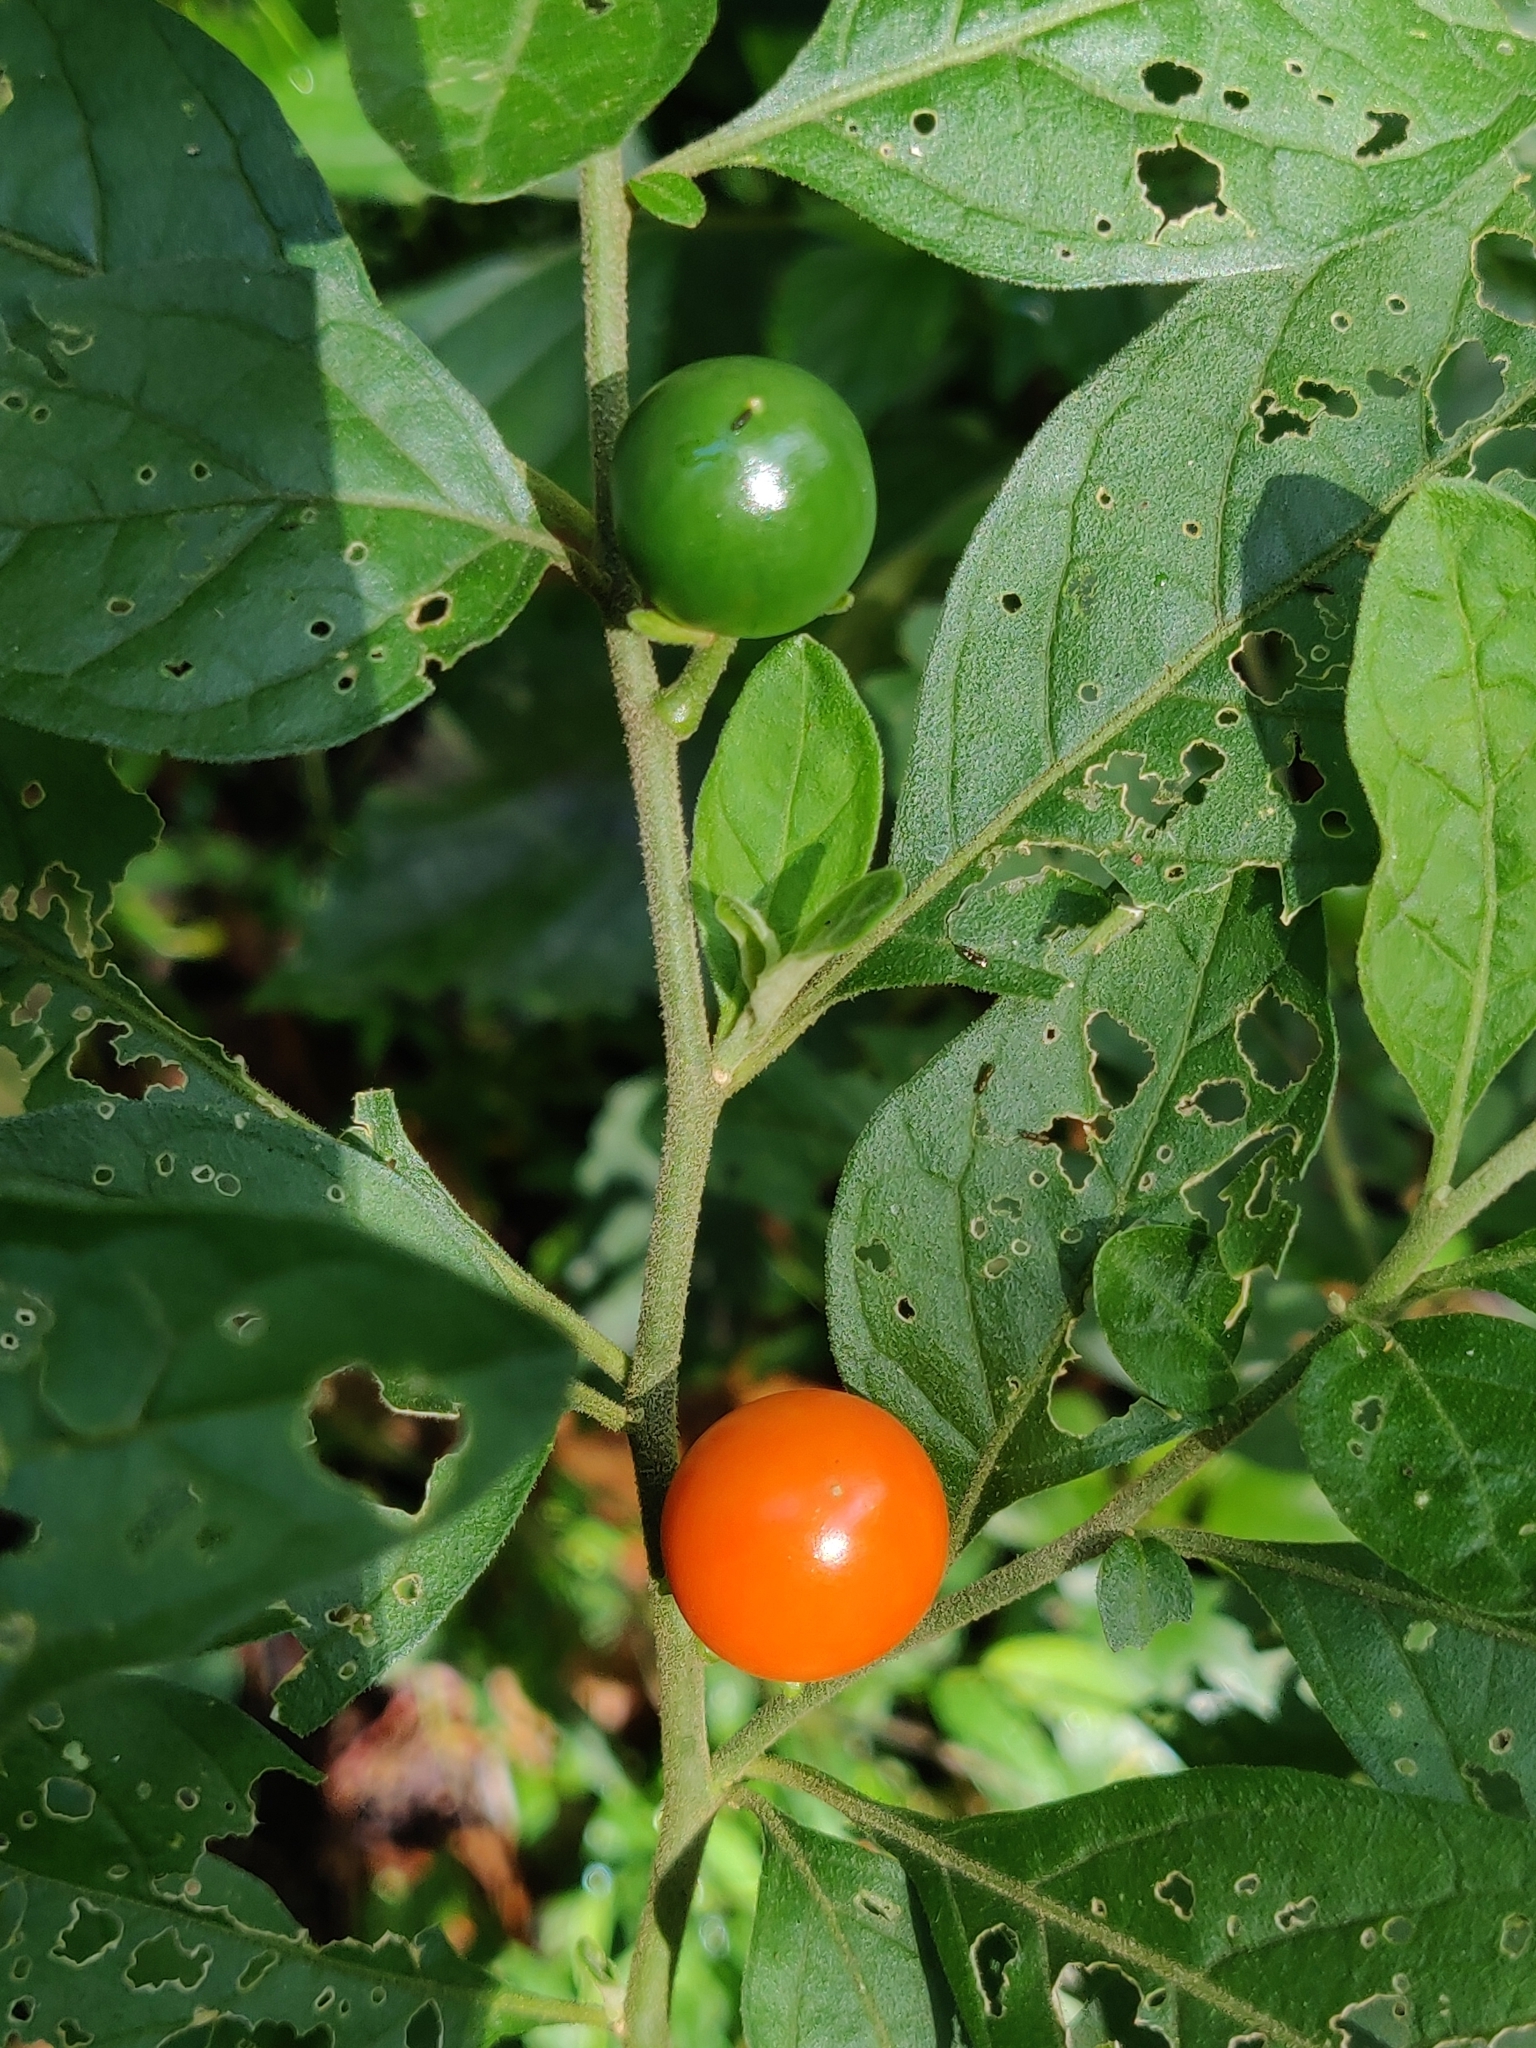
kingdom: Plantae
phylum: Tracheophyta
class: Magnoliopsida
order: Solanales
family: Solanaceae
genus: Solanum
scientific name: Solanum pseudocapsicum
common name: Jerusalem cherry
